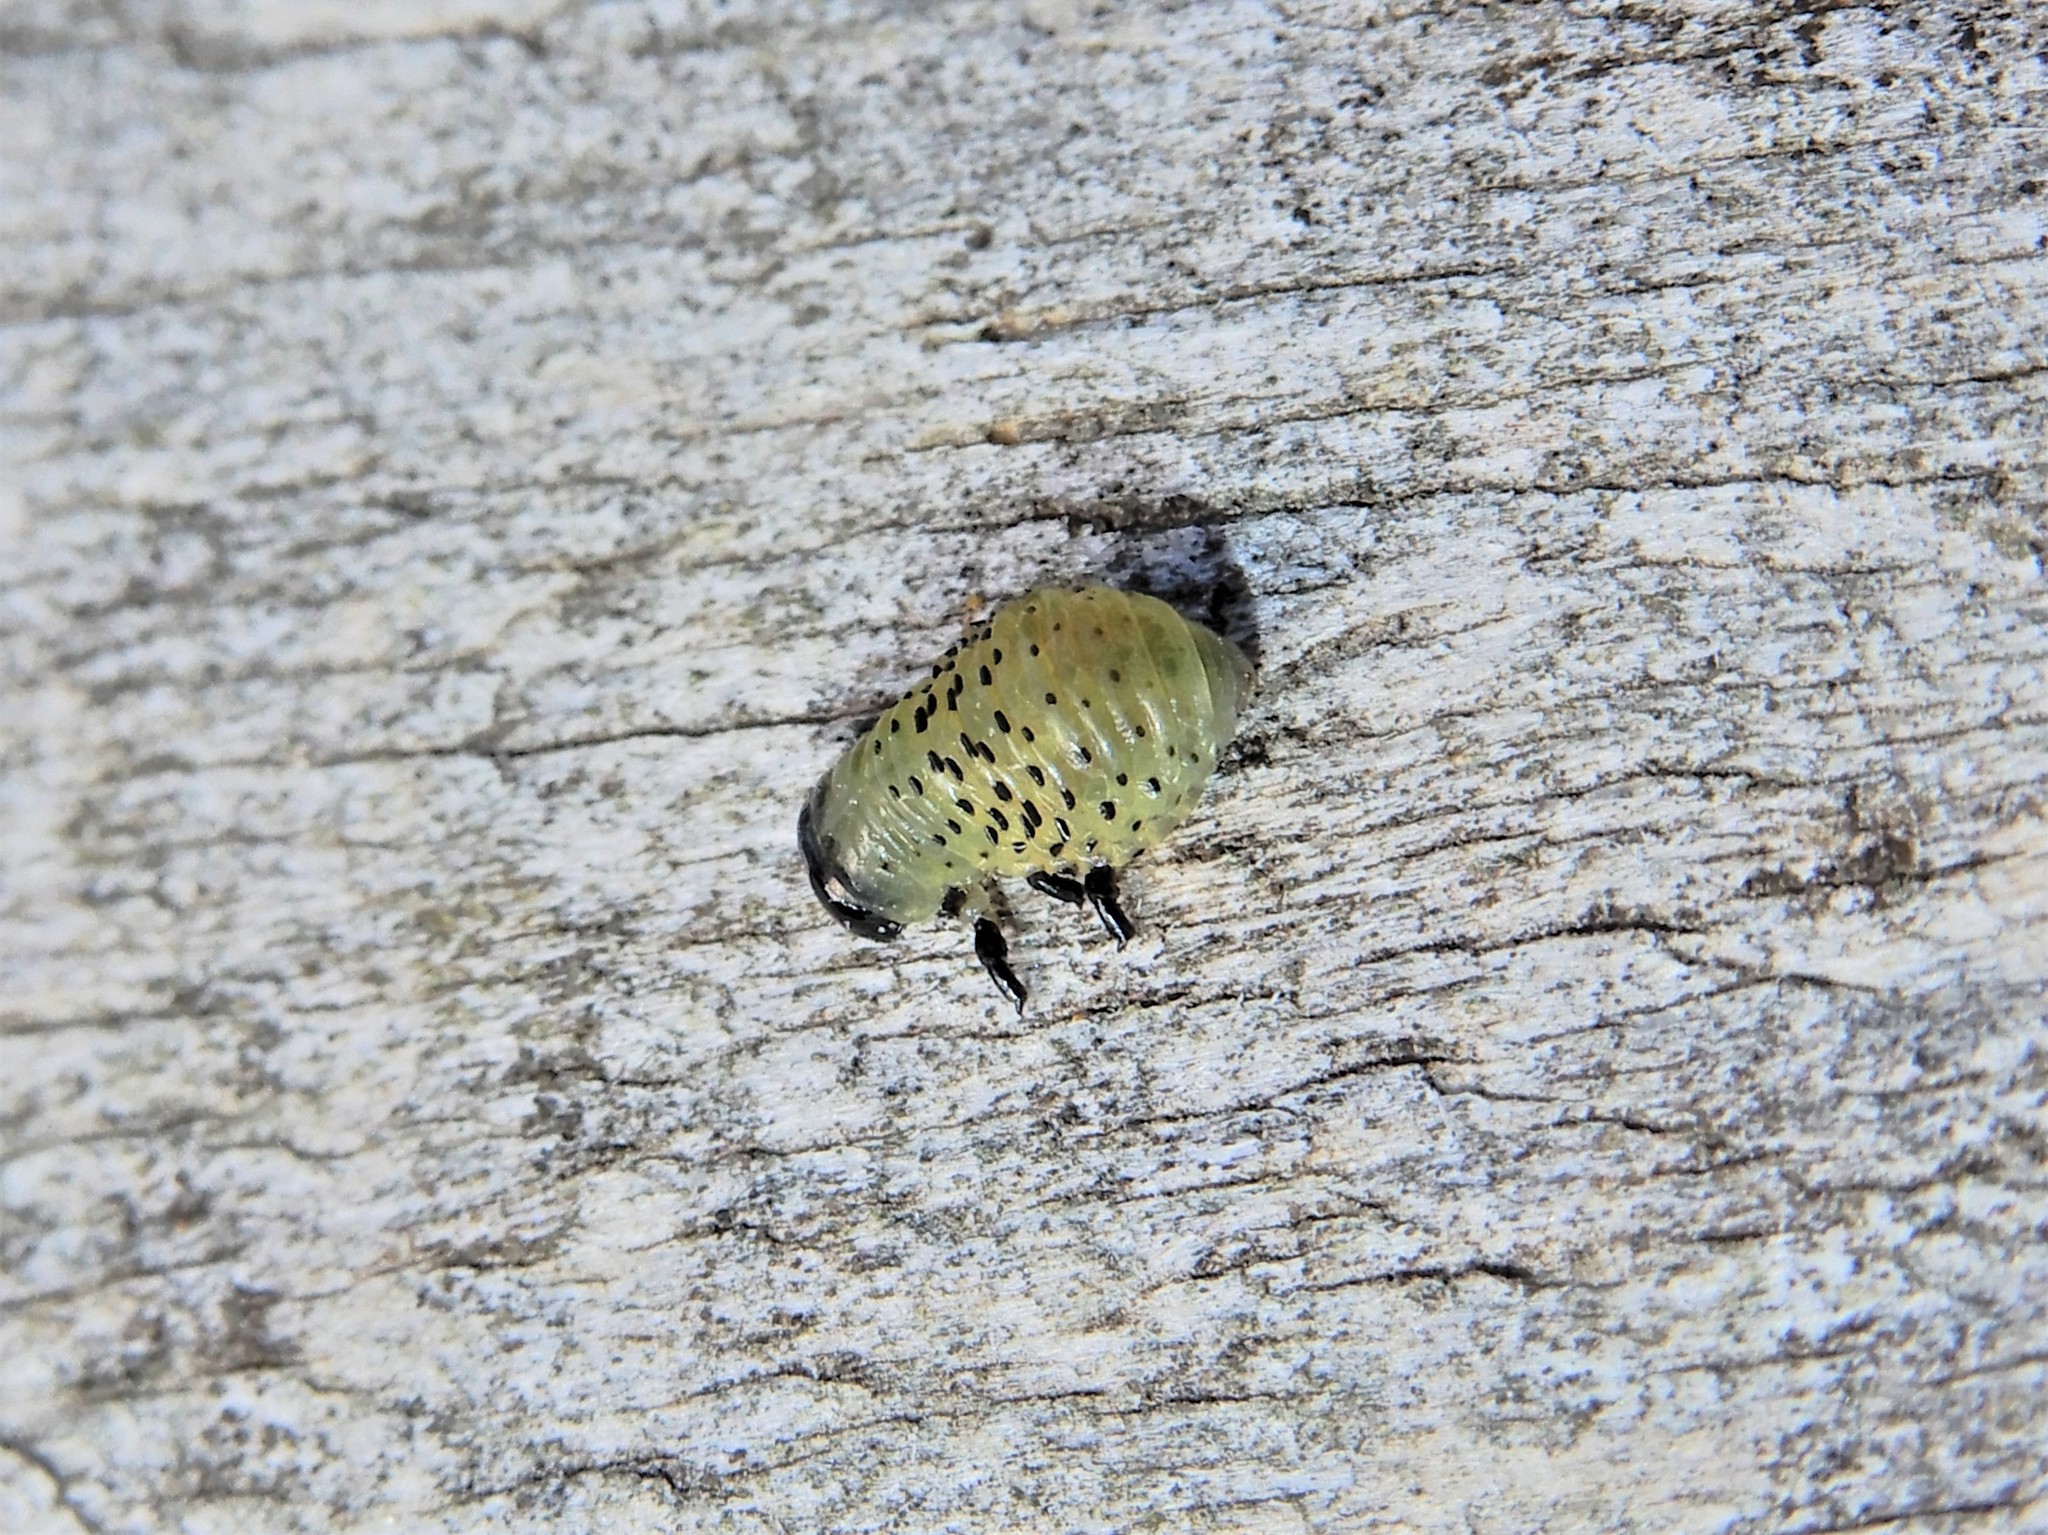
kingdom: Animalia
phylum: Arthropoda
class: Insecta
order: Coleoptera
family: Chrysomelidae
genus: Dicranosterna
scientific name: Dicranosterna
